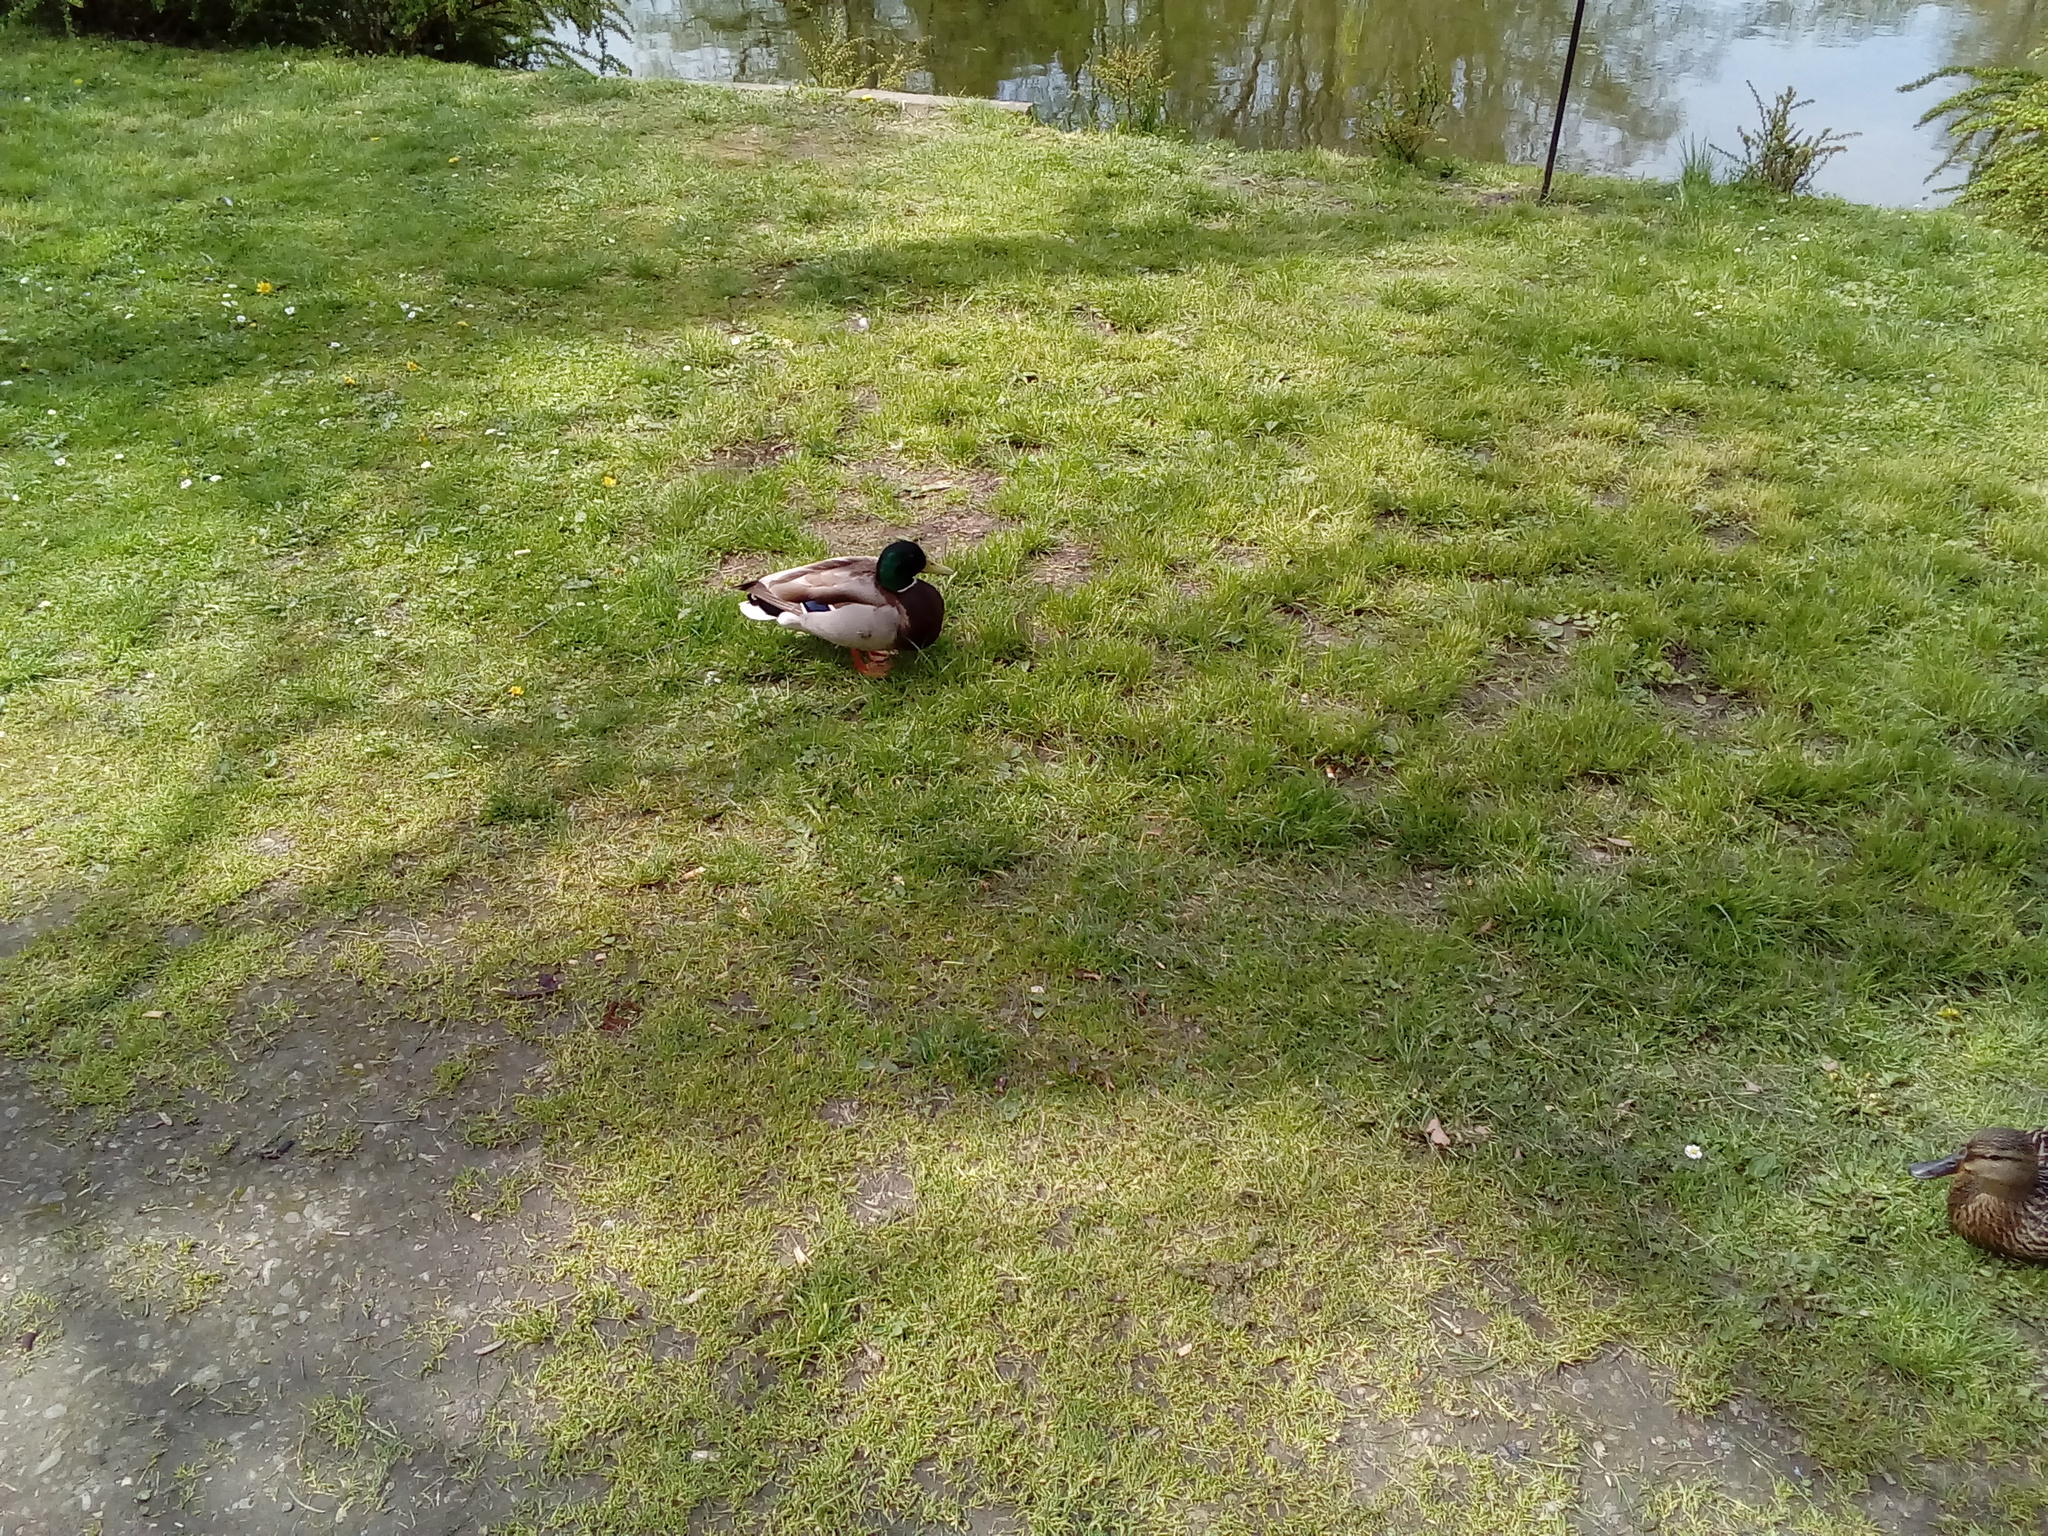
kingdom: Animalia
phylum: Chordata
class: Aves
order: Anseriformes
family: Anatidae
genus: Anas
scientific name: Anas platyrhynchos
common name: Mallard
